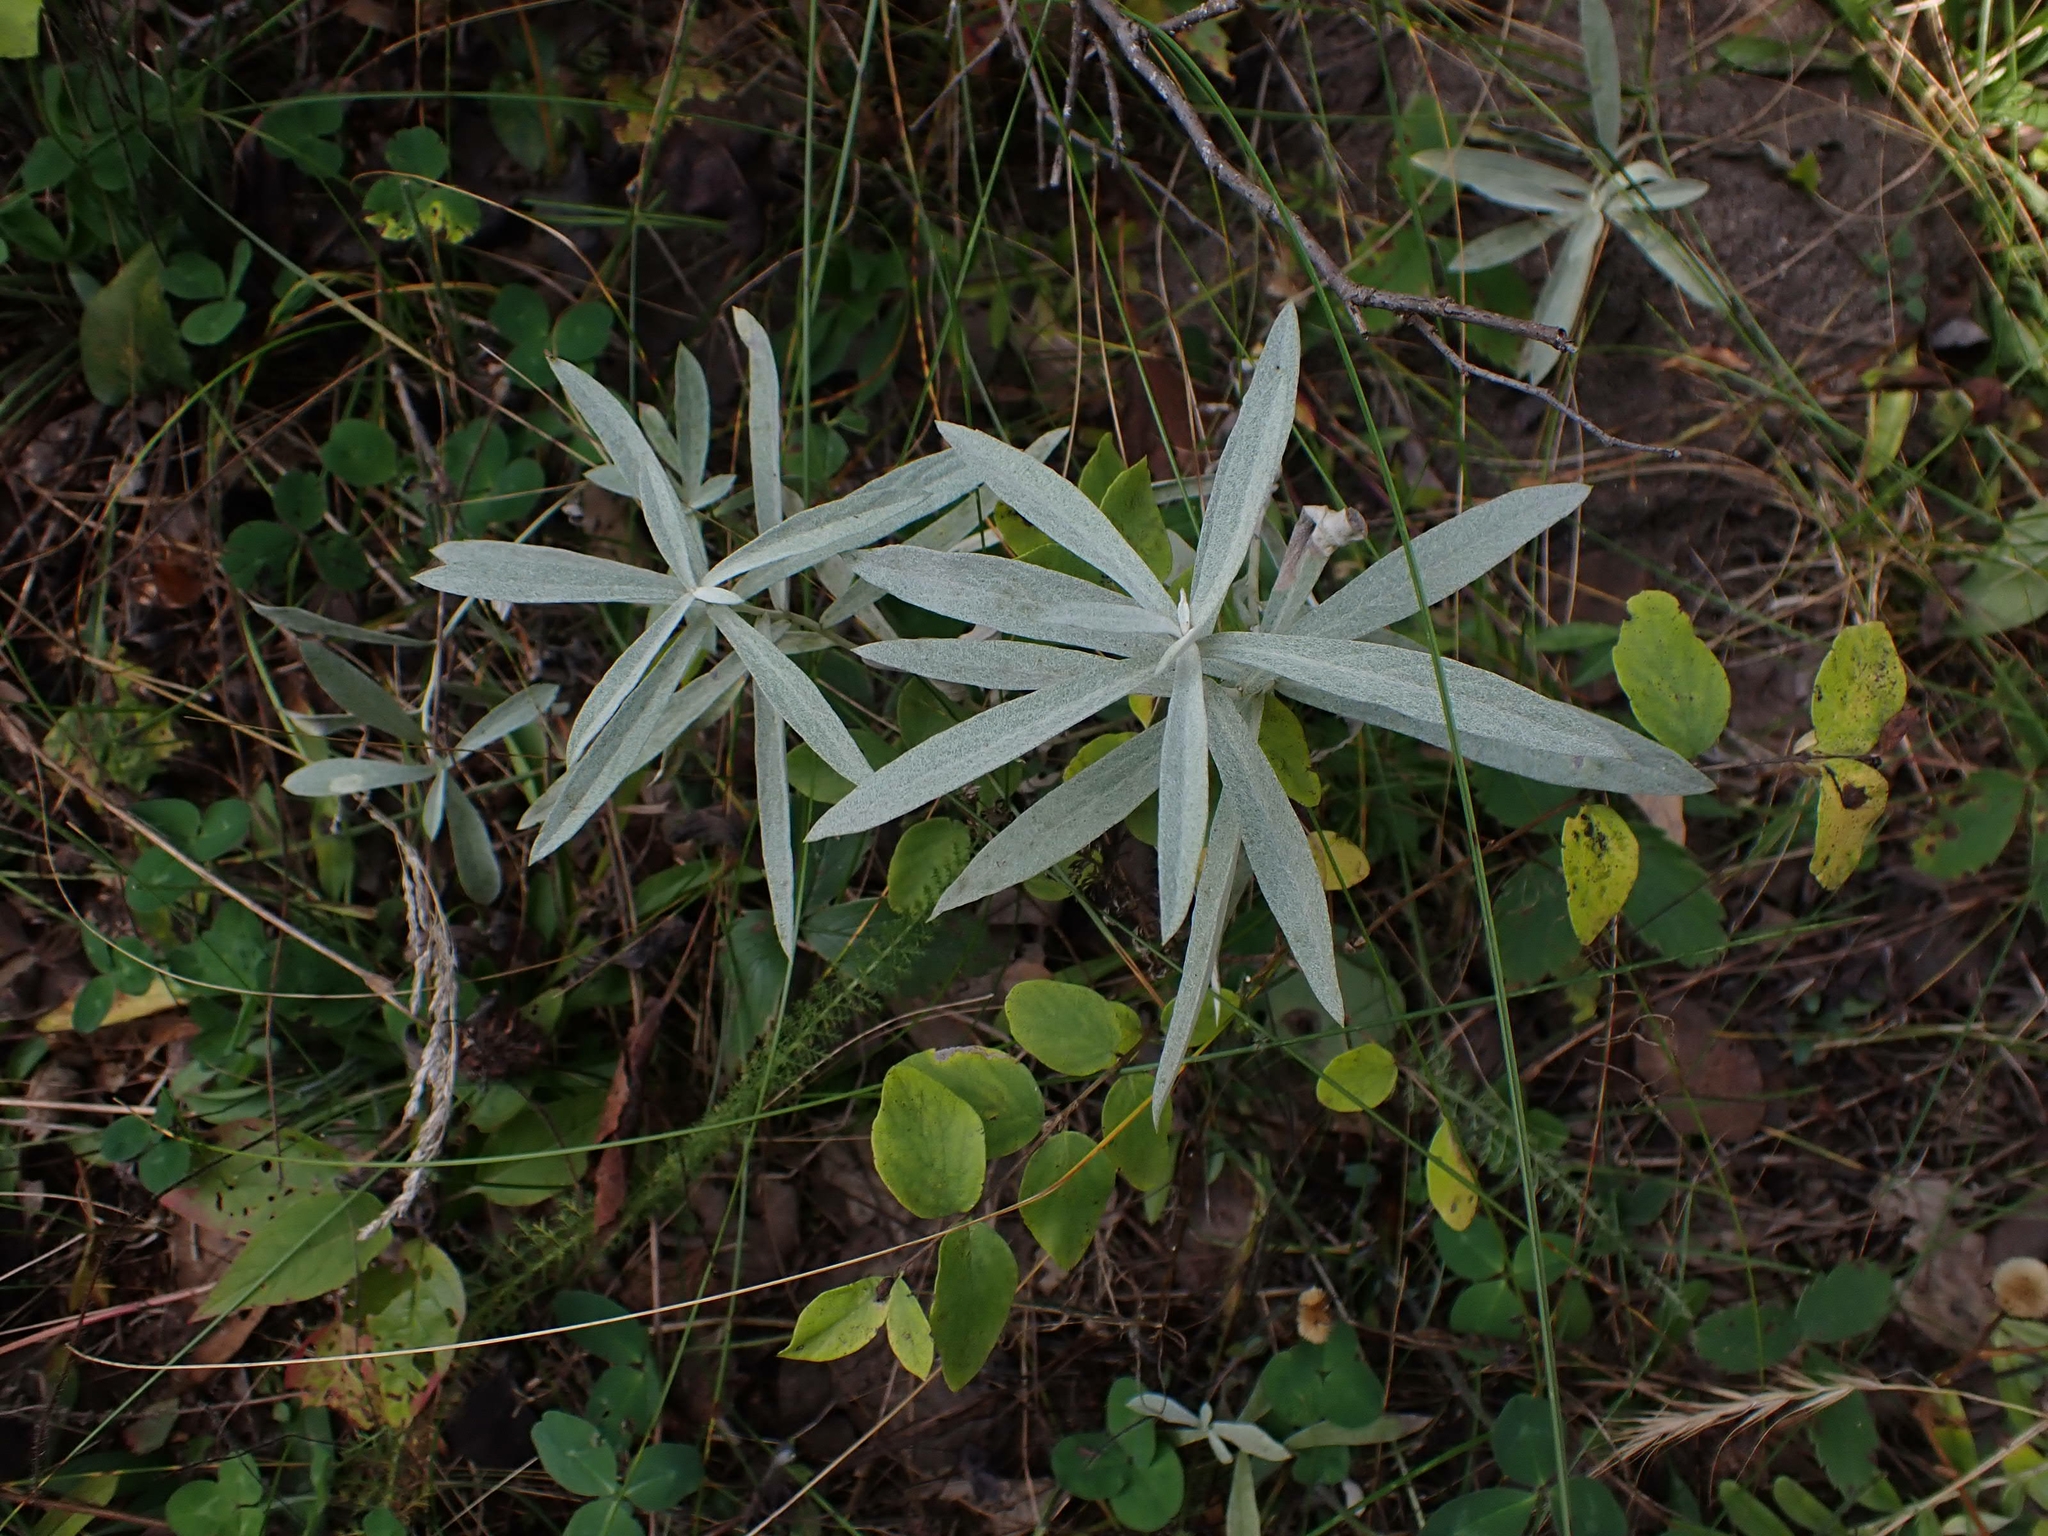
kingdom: Plantae
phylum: Tracheophyta
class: Magnoliopsida
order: Asterales
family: Asteraceae
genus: Artemisia
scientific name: Artemisia ludoviciana
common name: Western mugwort
